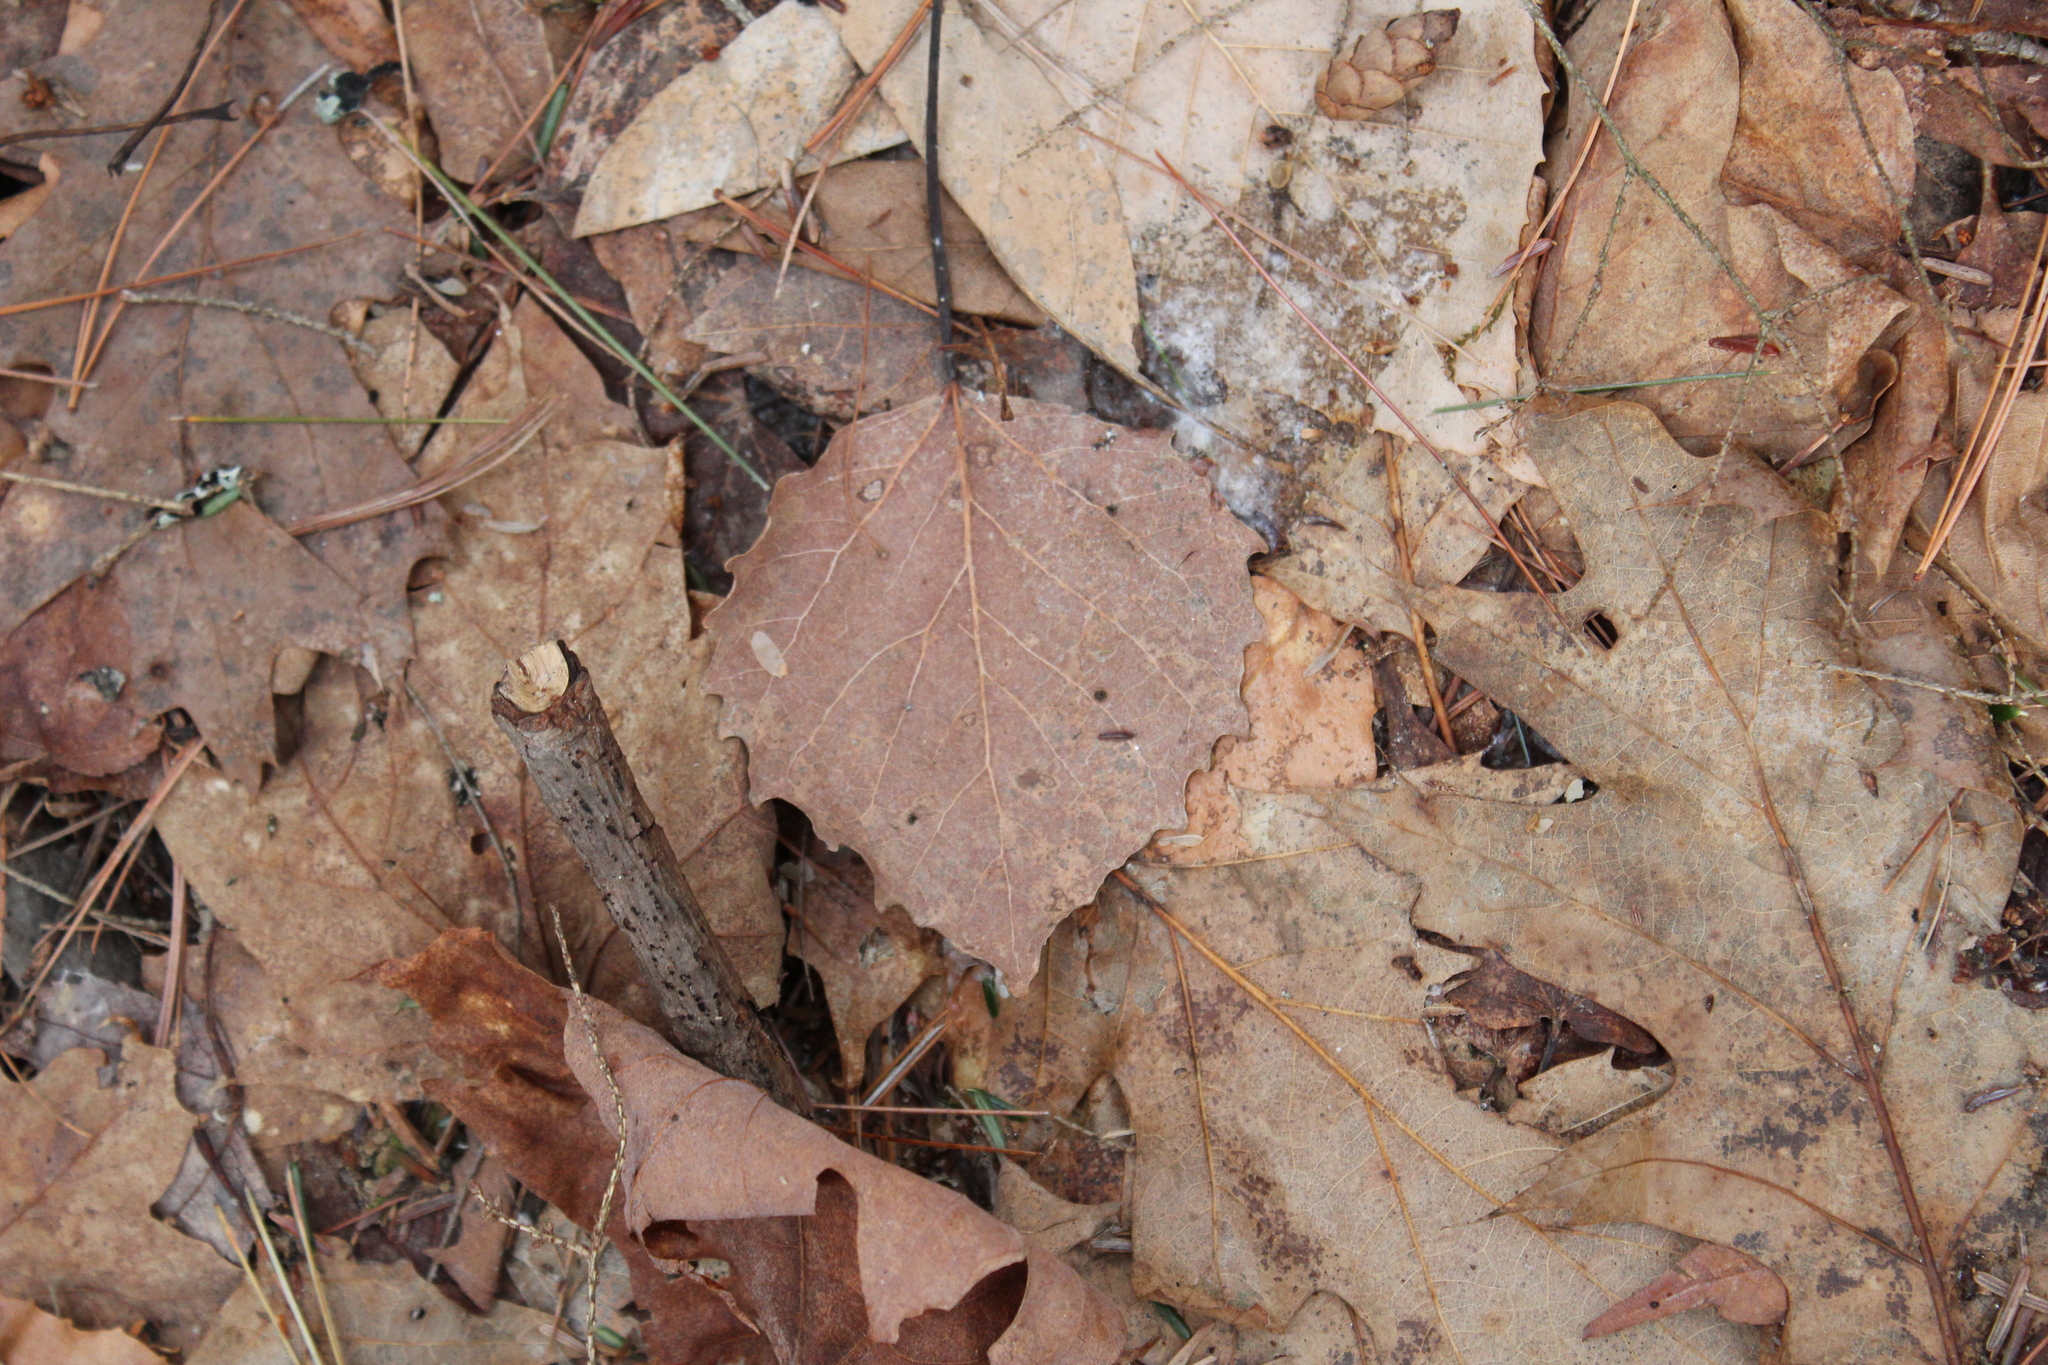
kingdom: Plantae
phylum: Tracheophyta
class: Magnoliopsida
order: Malpighiales
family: Salicaceae
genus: Populus
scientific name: Populus grandidentata
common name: Bigtooth aspen
